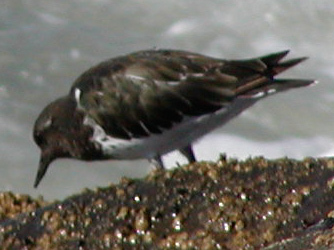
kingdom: Animalia
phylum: Chordata
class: Aves
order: Charadriiformes
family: Scolopacidae
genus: Arenaria
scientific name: Arenaria melanocephala
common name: Black turnstone
